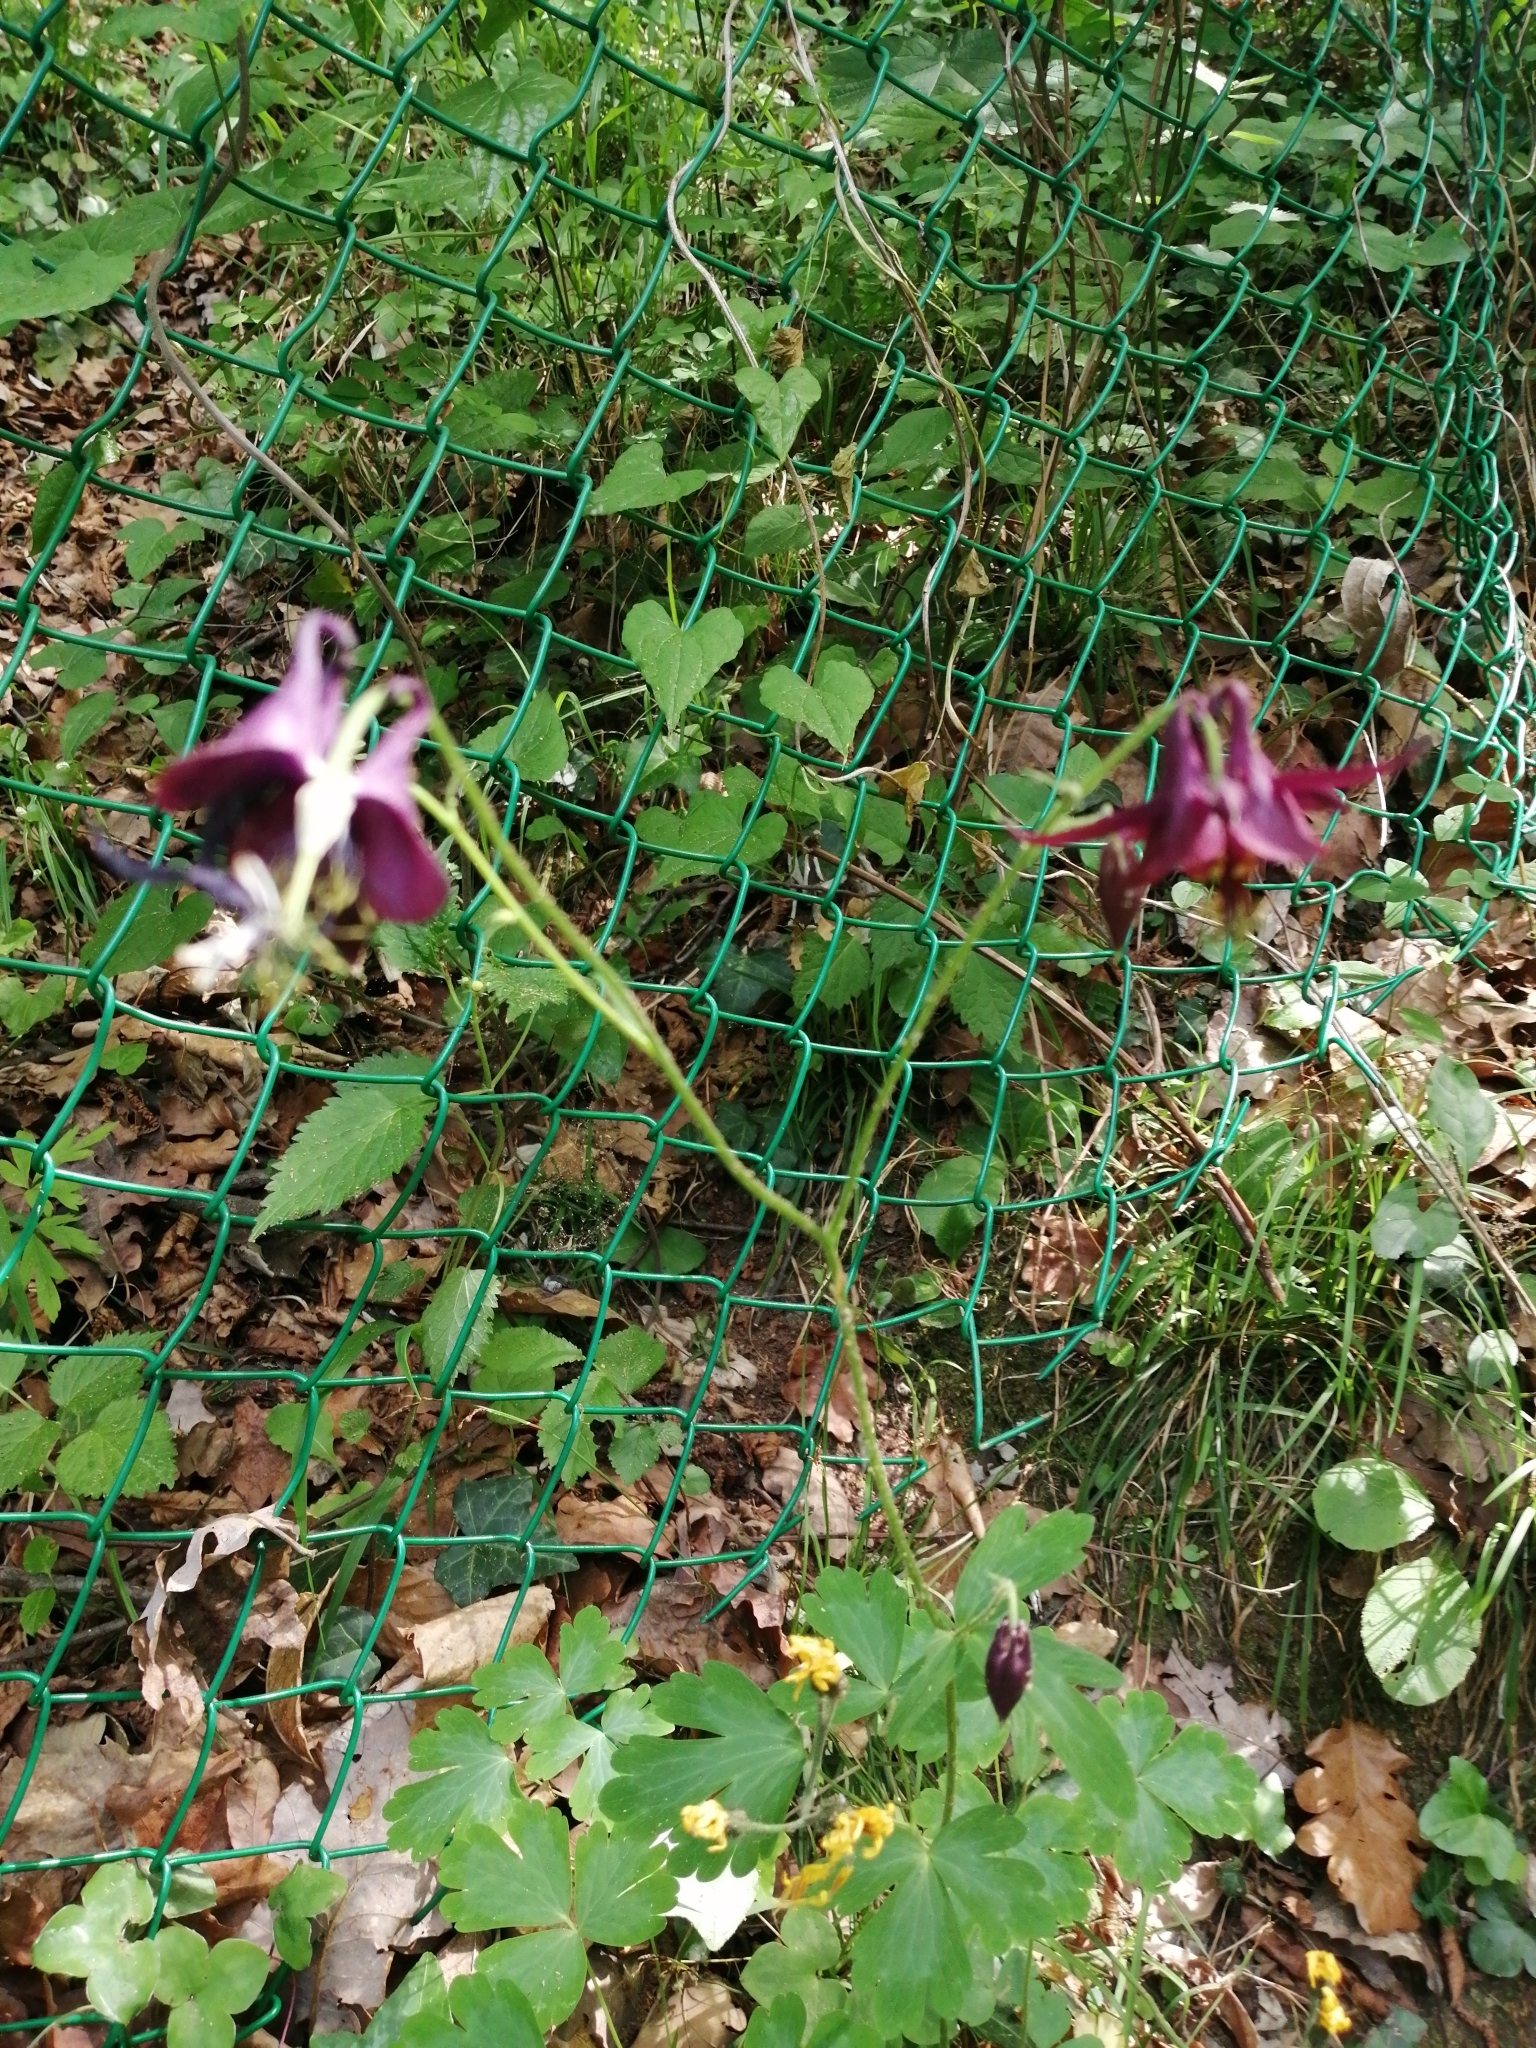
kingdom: Plantae
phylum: Tracheophyta
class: Magnoliopsida
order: Ranunculales
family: Ranunculaceae
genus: Aquilegia
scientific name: Aquilegia atrata
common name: Dark columbine
